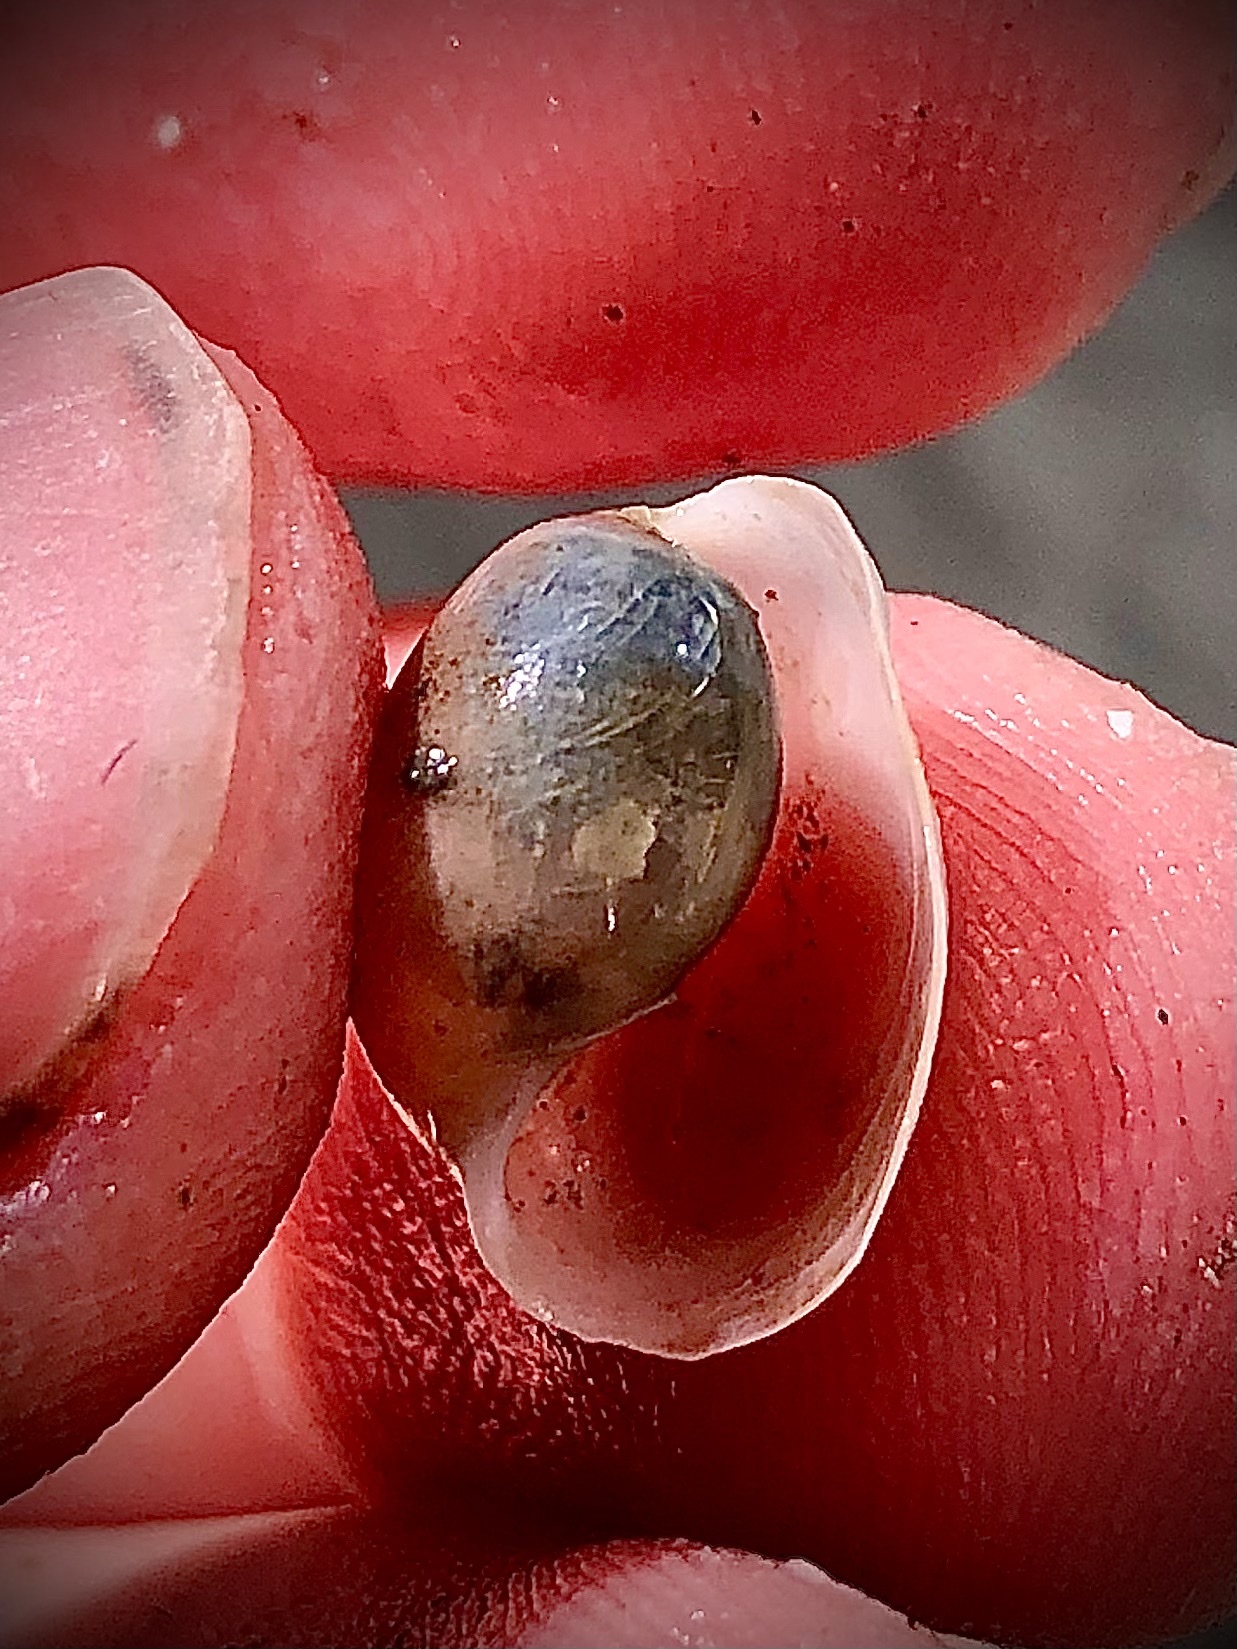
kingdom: Animalia
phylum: Mollusca
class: Gastropoda
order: Cephalaspidea
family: Haminoeidae
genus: Haloa
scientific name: Haloa japonica
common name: Japanese bubble snail
